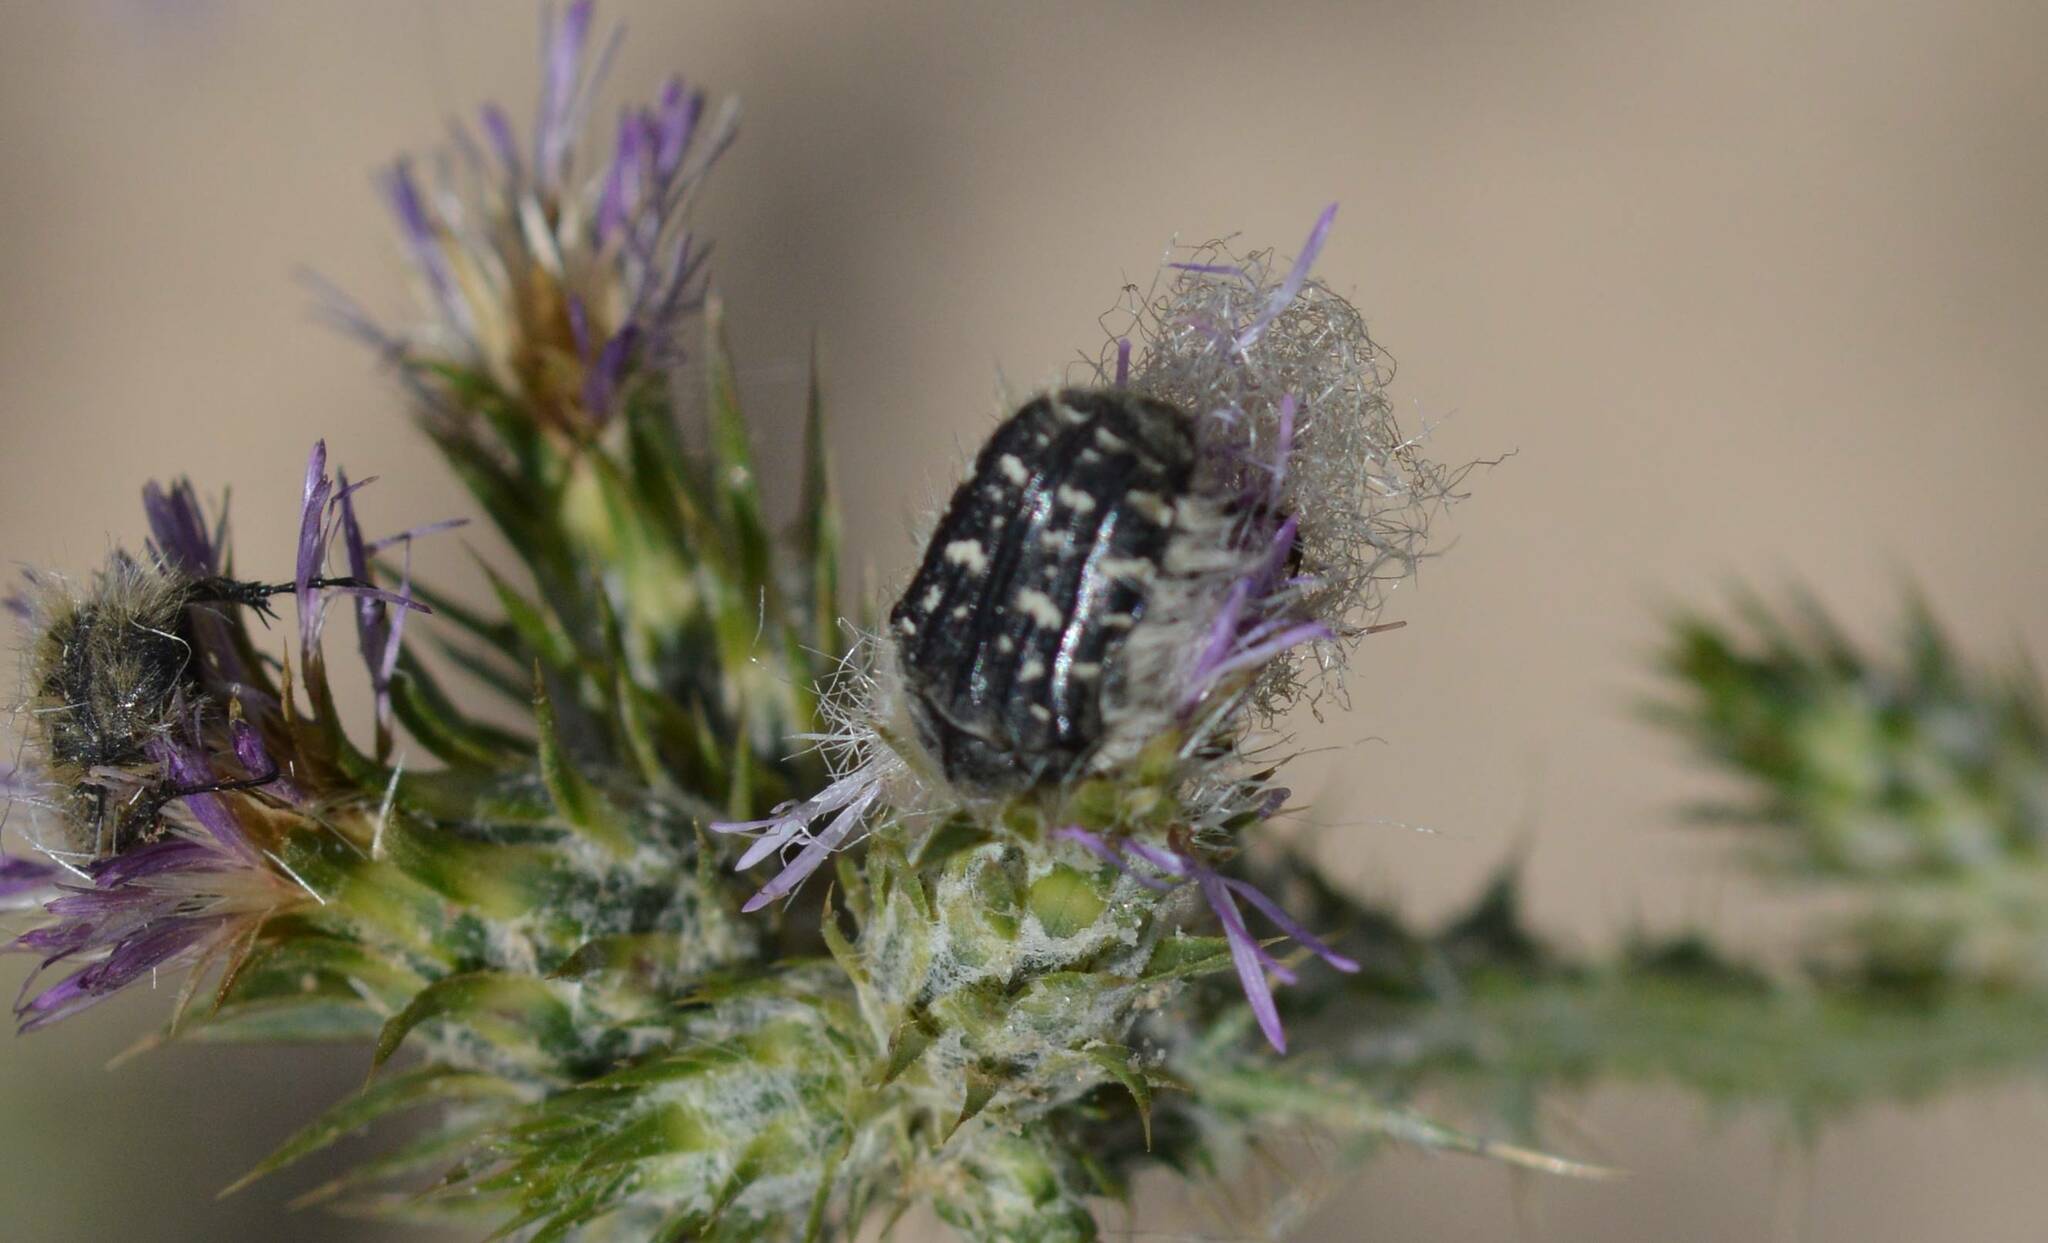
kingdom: Animalia
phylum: Arthropoda
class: Insecta
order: Coleoptera
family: Scarabaeidae
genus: Oxythyrea
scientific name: Oxythyrea funesta
